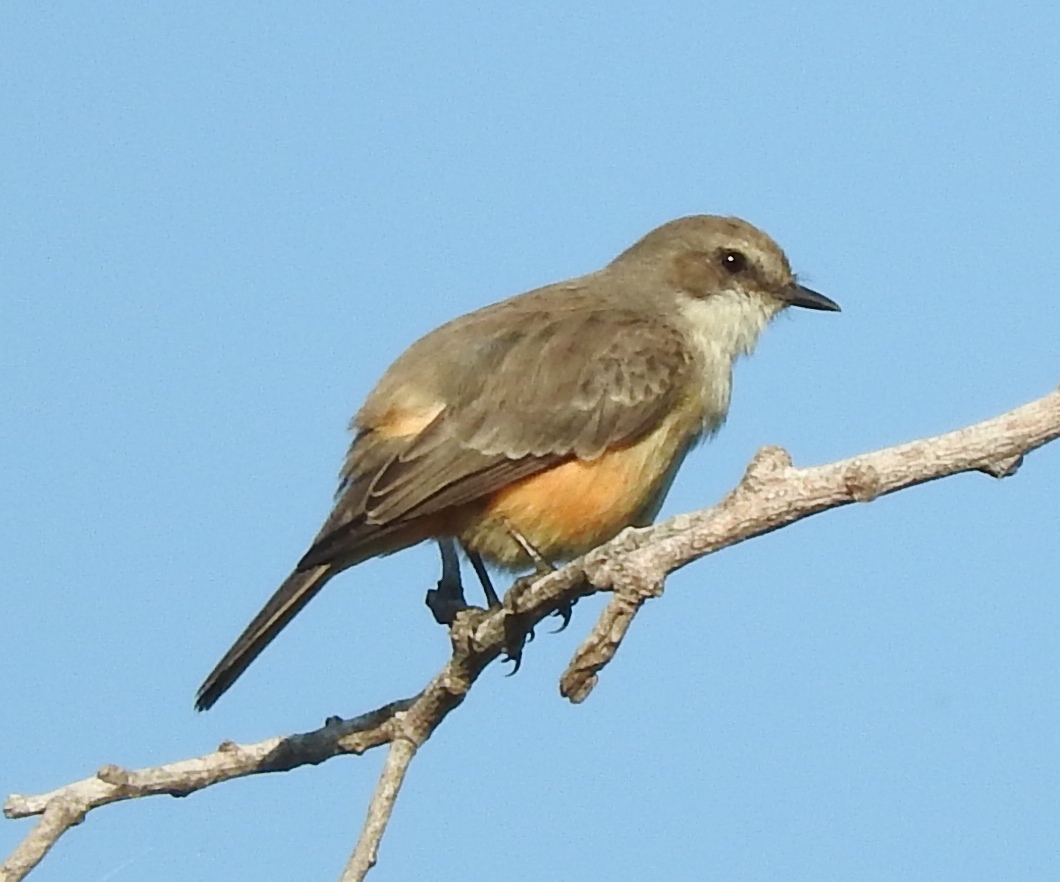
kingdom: Animalia
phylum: Chordata
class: Aves
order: Passeriformes
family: Tyrannidae
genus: Pyrocephalus
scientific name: Pyrocephalus rubinus
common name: Vermilion flycatcher
